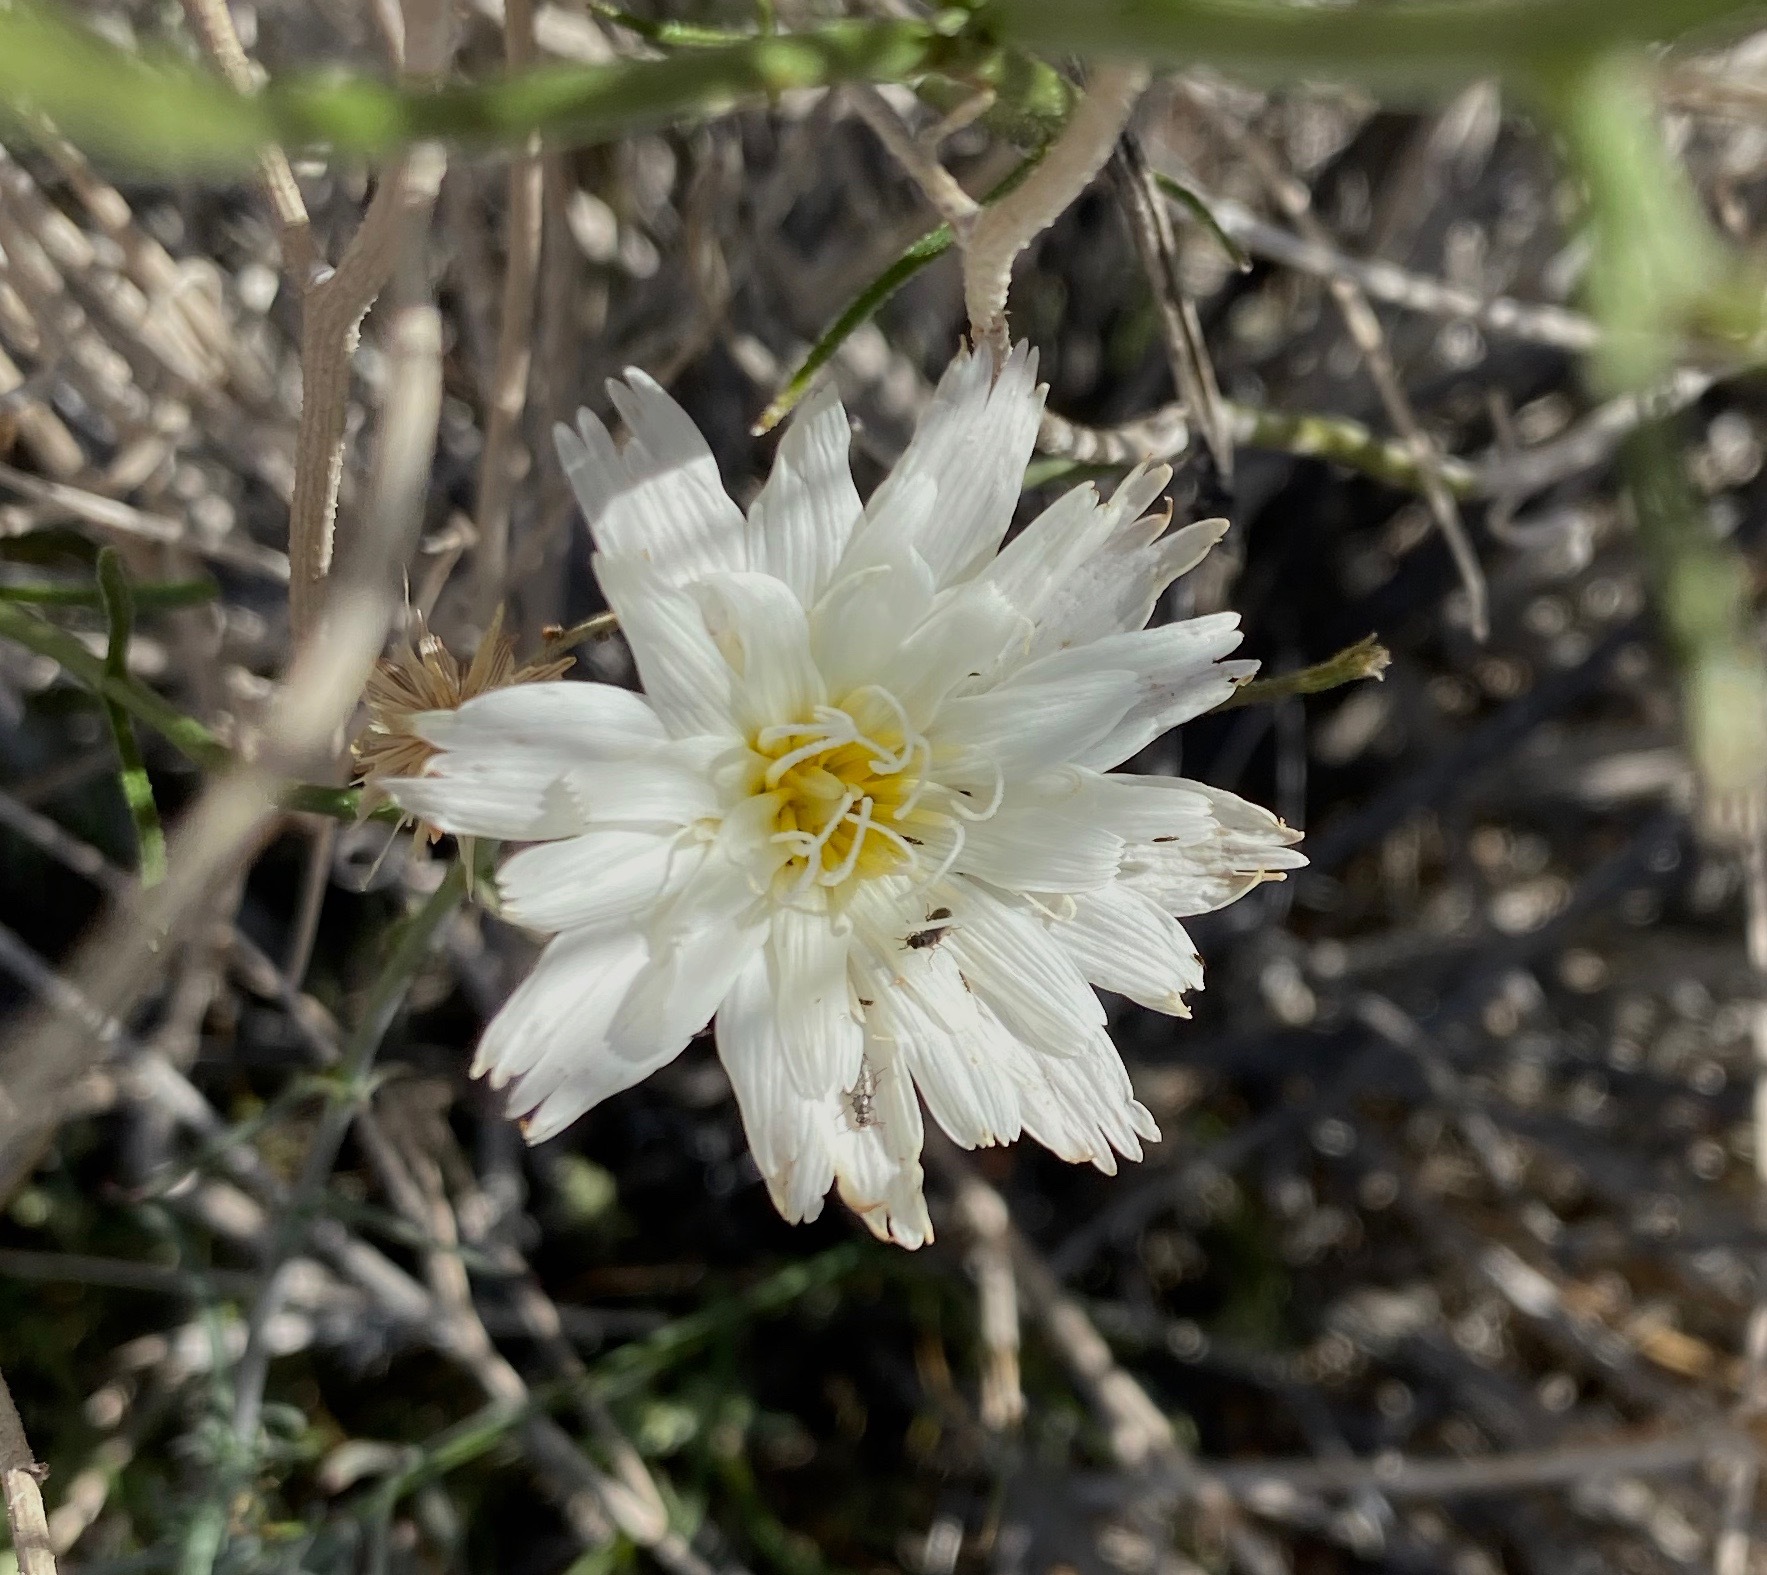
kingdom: Plantae
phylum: Tracheophyta
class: Magnoliopsida
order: Asterales
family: Asteraceae
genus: Rafinesquia
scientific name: Rafinesquia neomexicana
